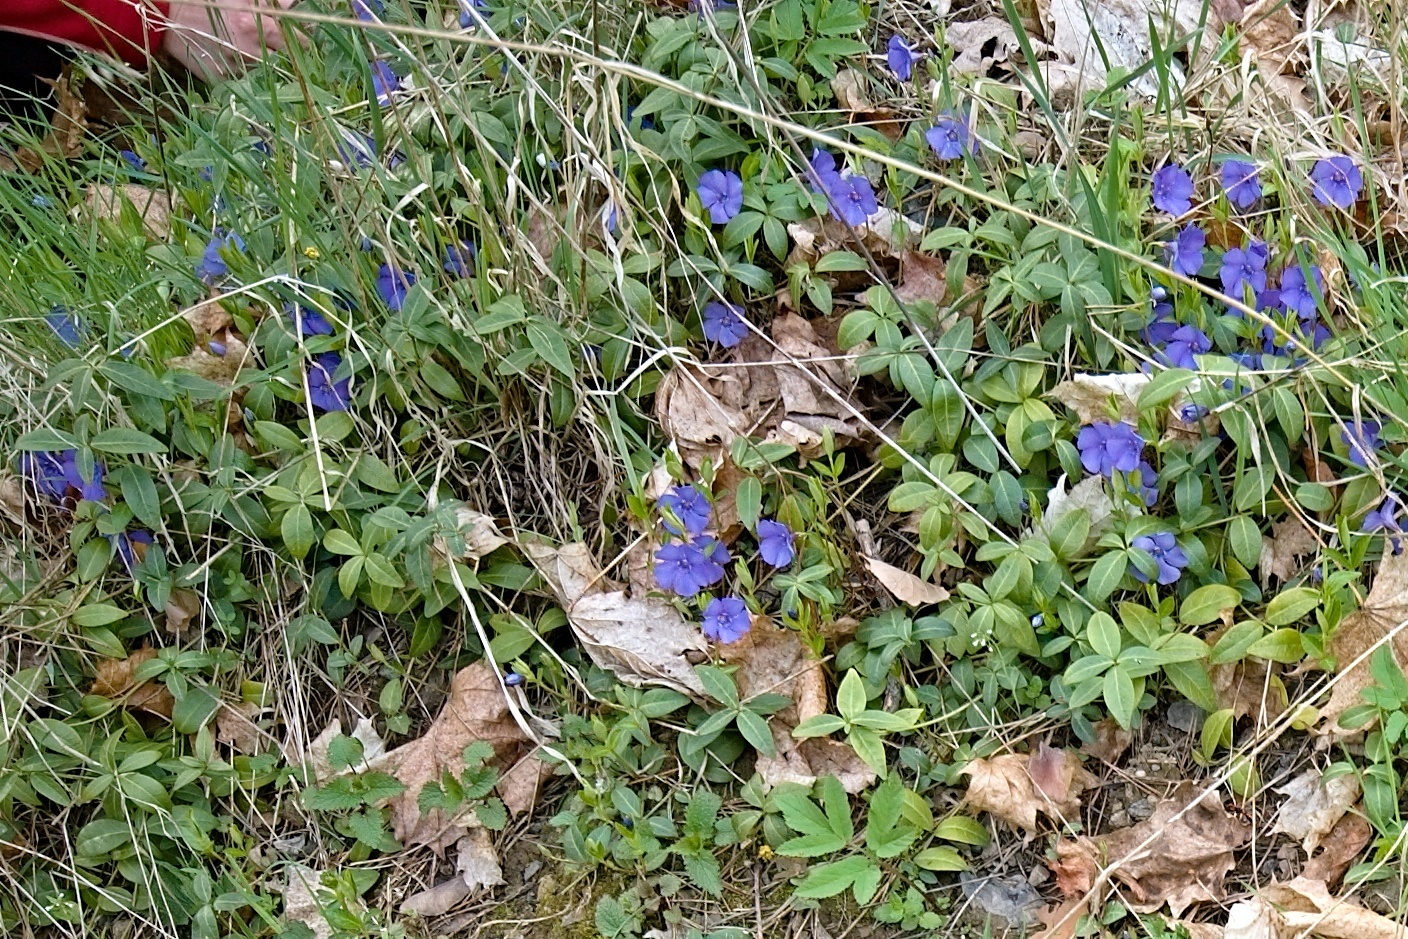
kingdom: Plantae
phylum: Tracheophyta
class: Magnoliopsida
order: Gentianales
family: Apocynaceae
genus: Vinca
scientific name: Vinca minor
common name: Lesser periwinkle
